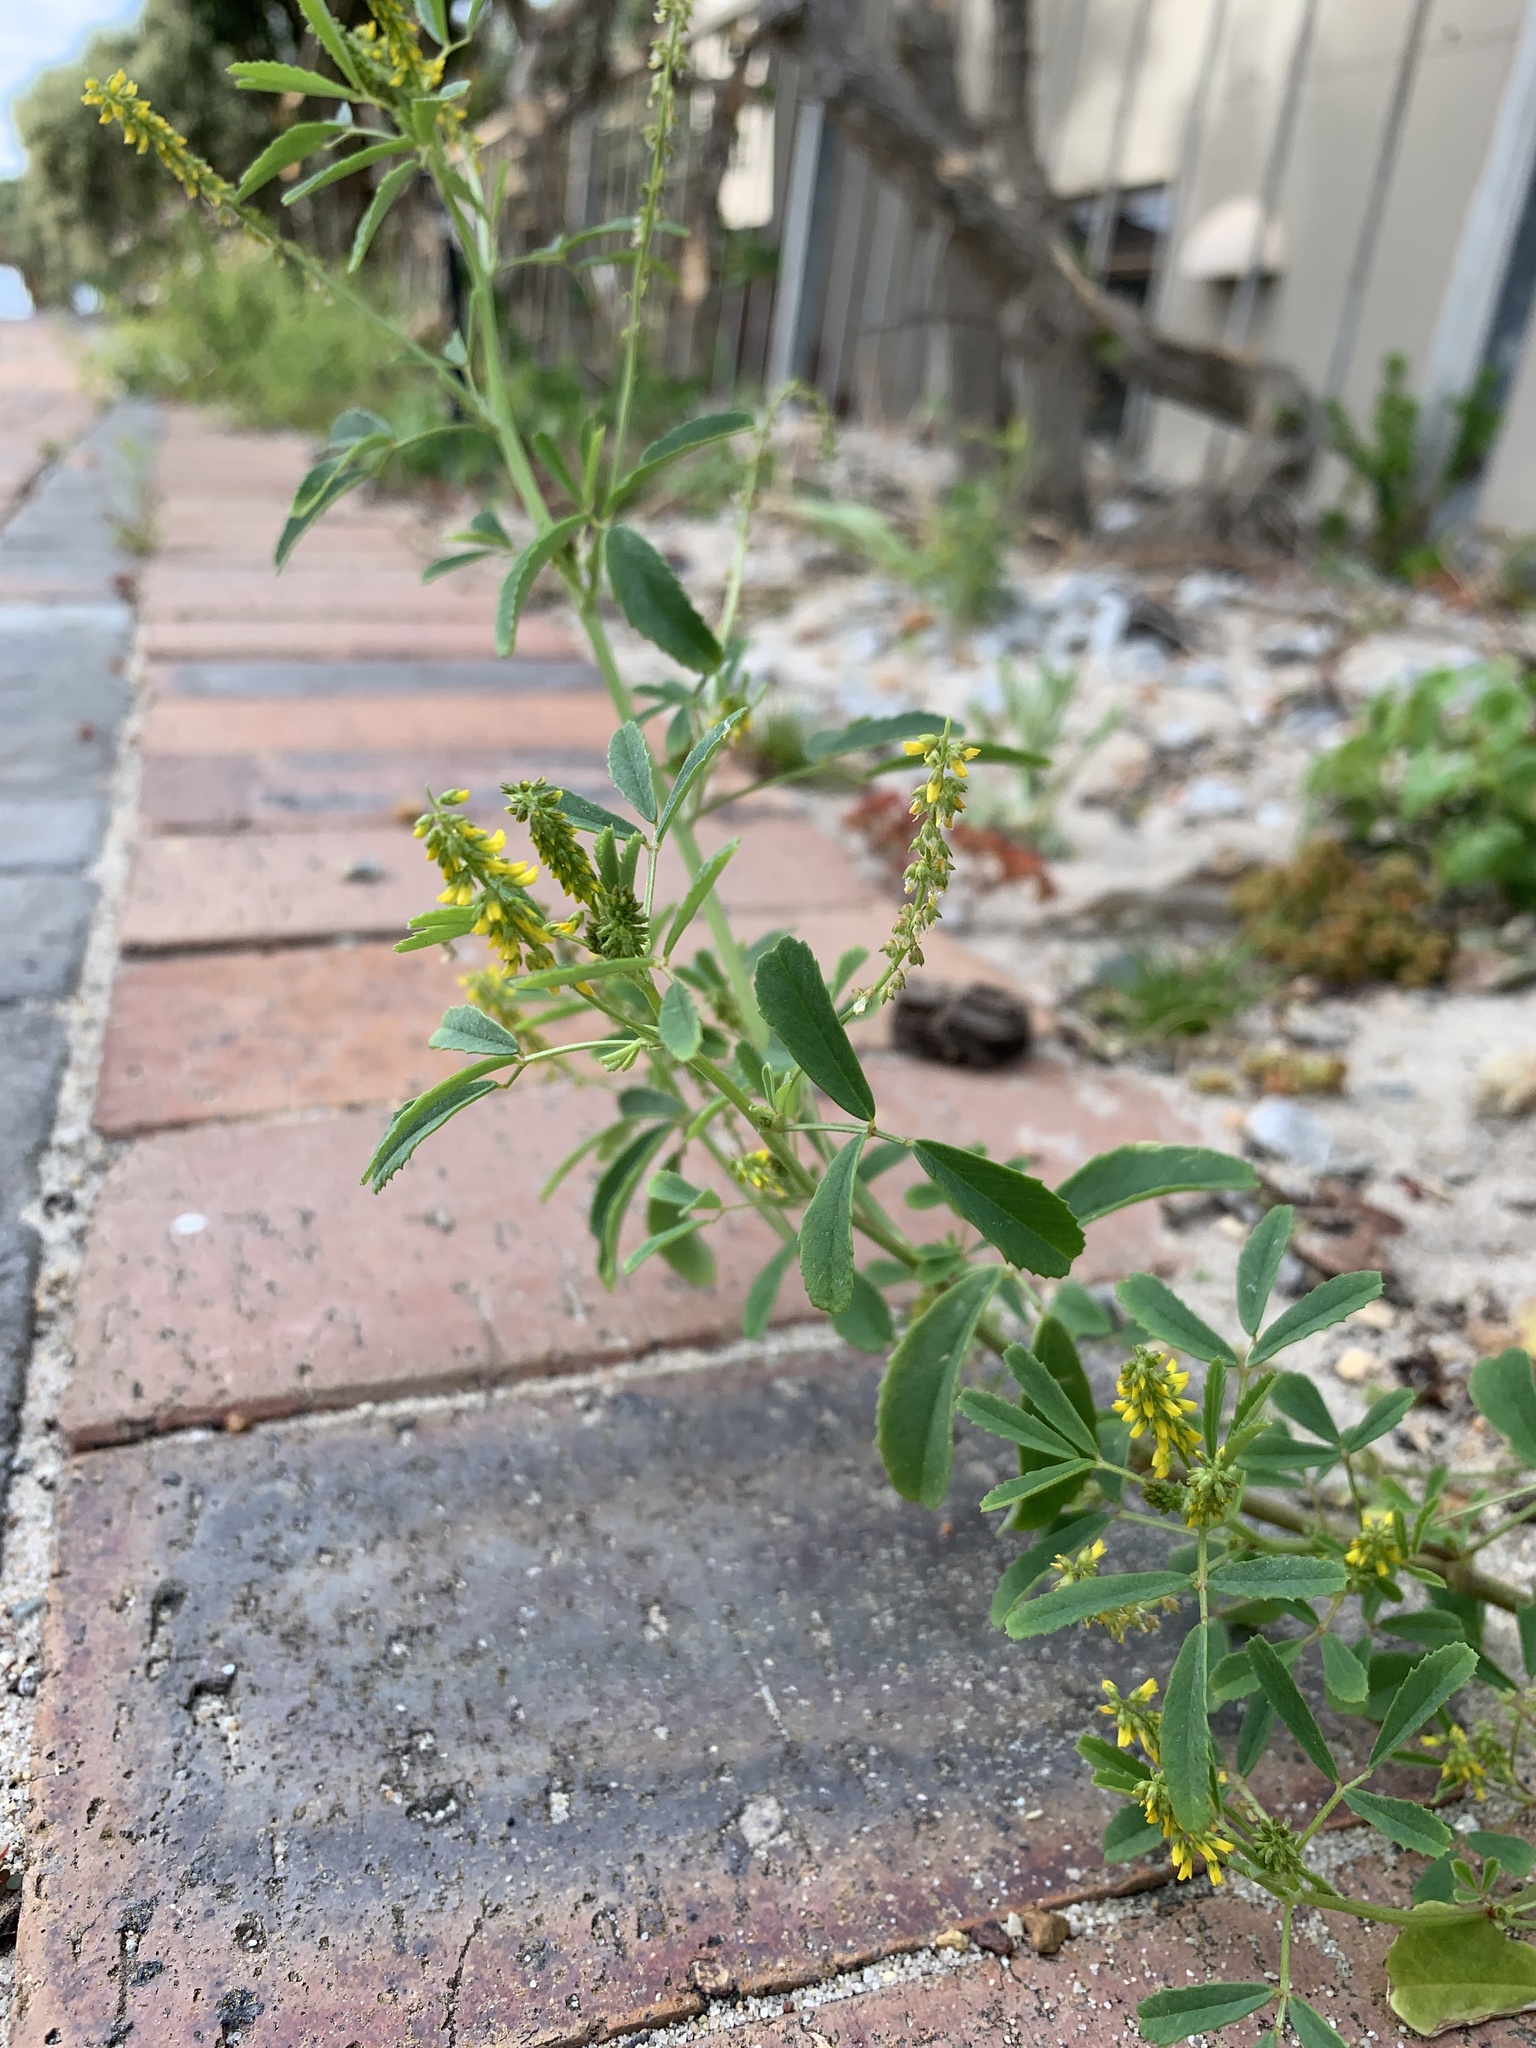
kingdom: Plantae
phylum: Tracheophyta
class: Magnoliopsida
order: Fabales
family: Fabaceae
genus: Melilotus
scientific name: Melilotus indicus
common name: Small melilot
